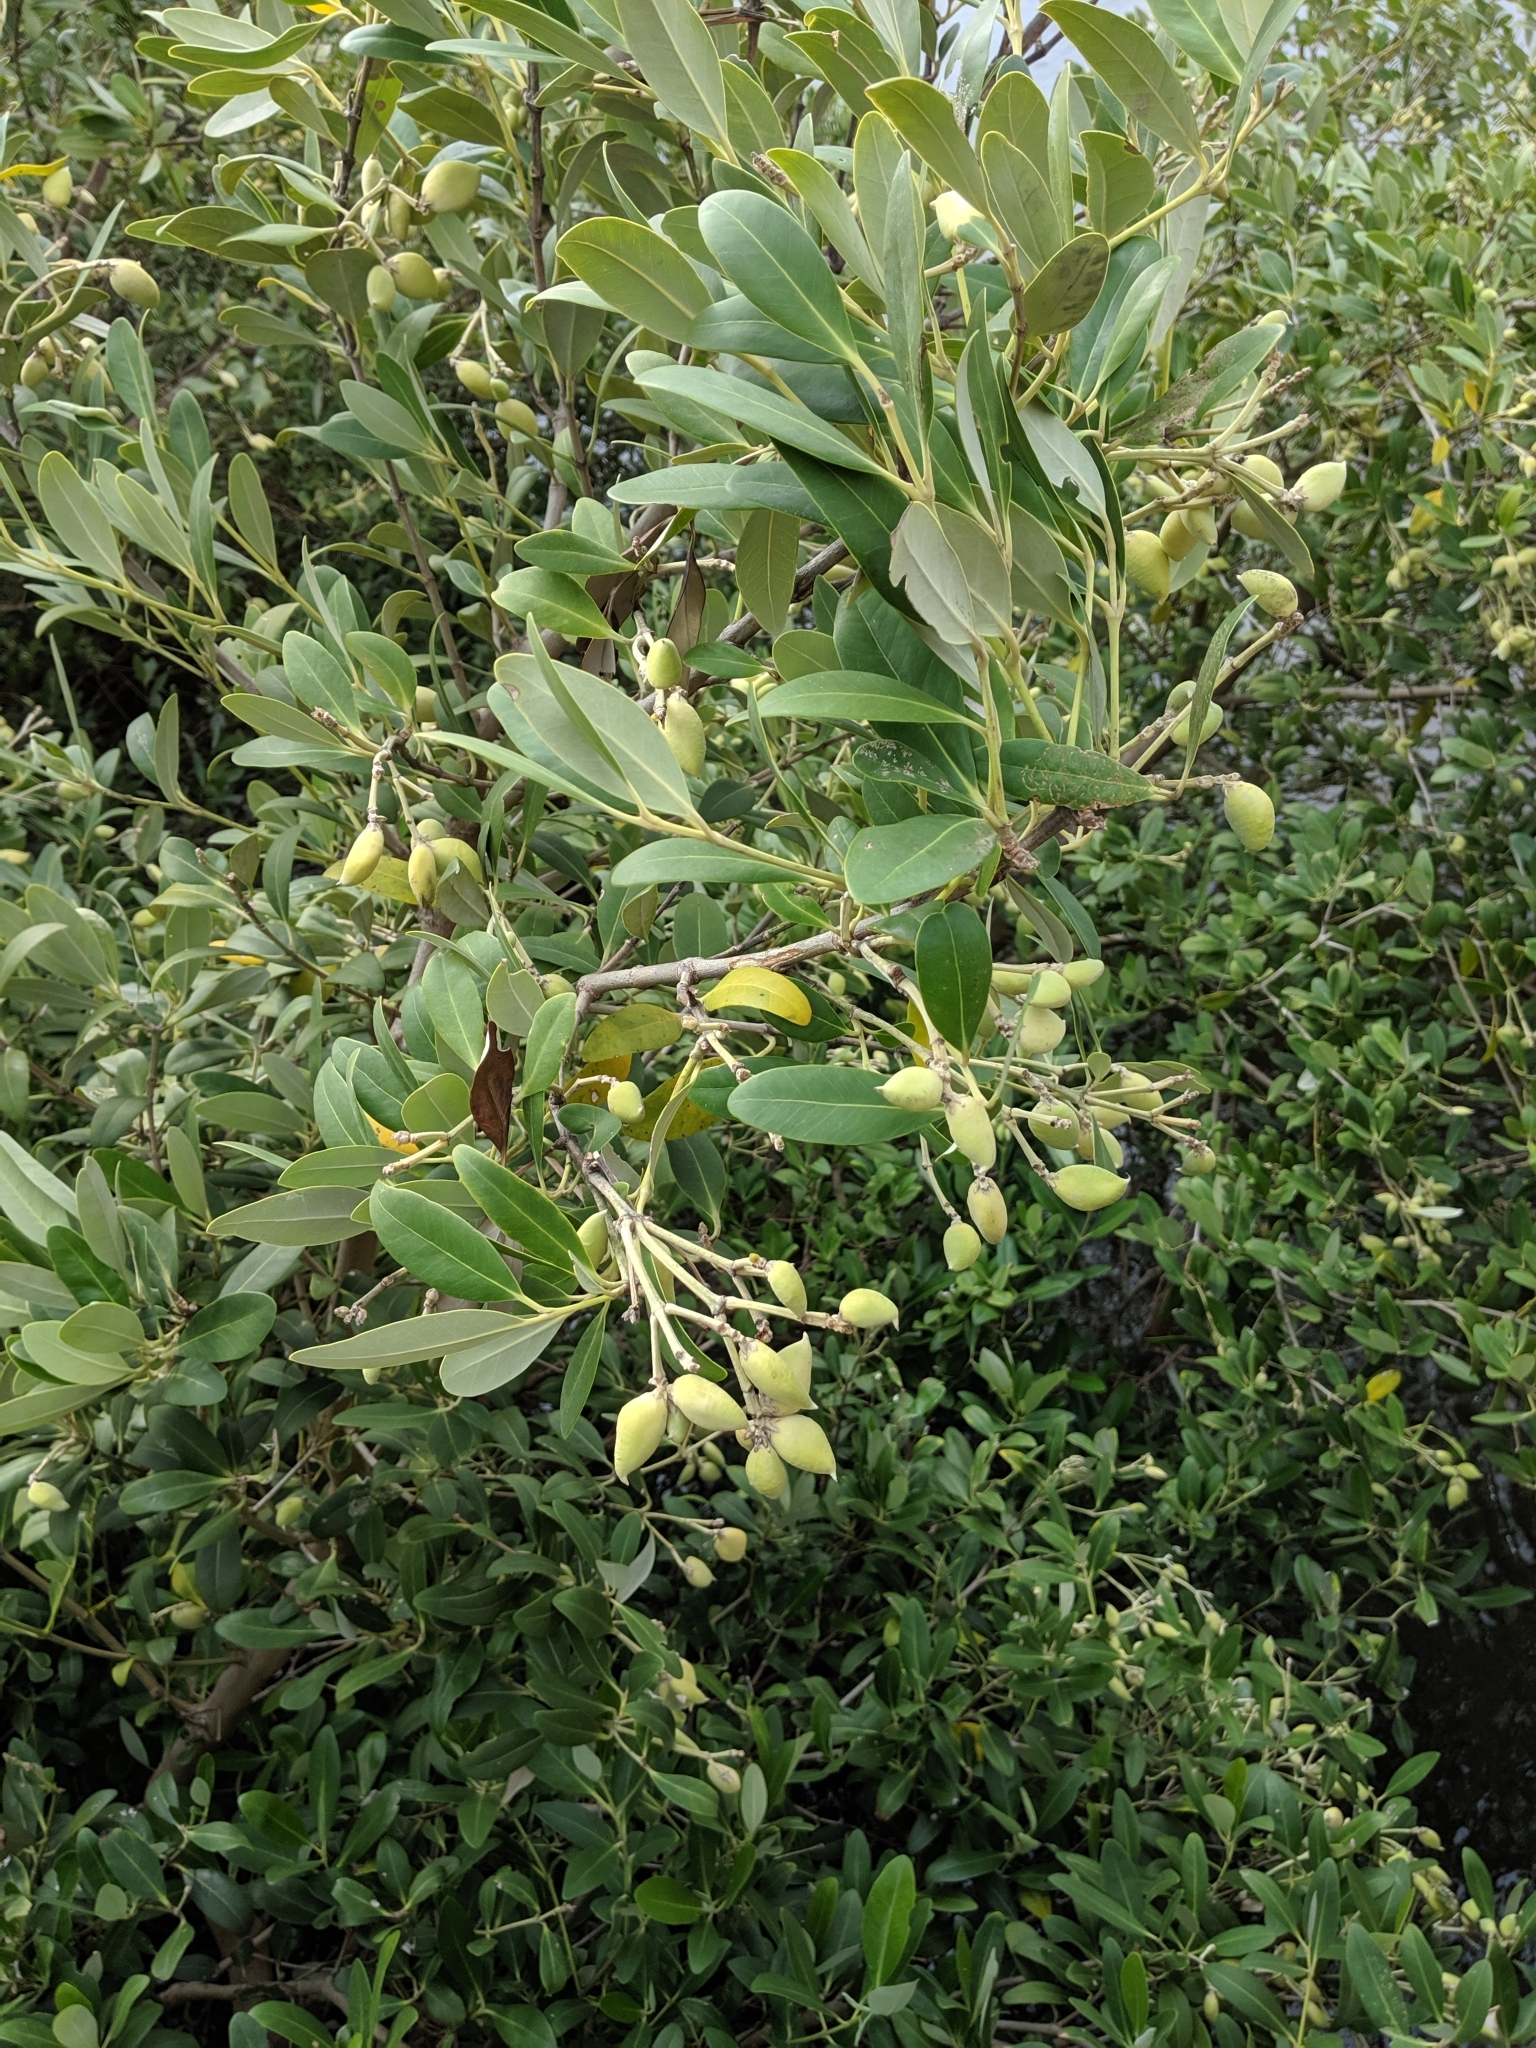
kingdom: Plantae
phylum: Tracheophyta
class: Magnoliopsida
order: Lamiales
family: Acanthaceae
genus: Avicennia
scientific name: Avicennia germinans
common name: Black mangrove
